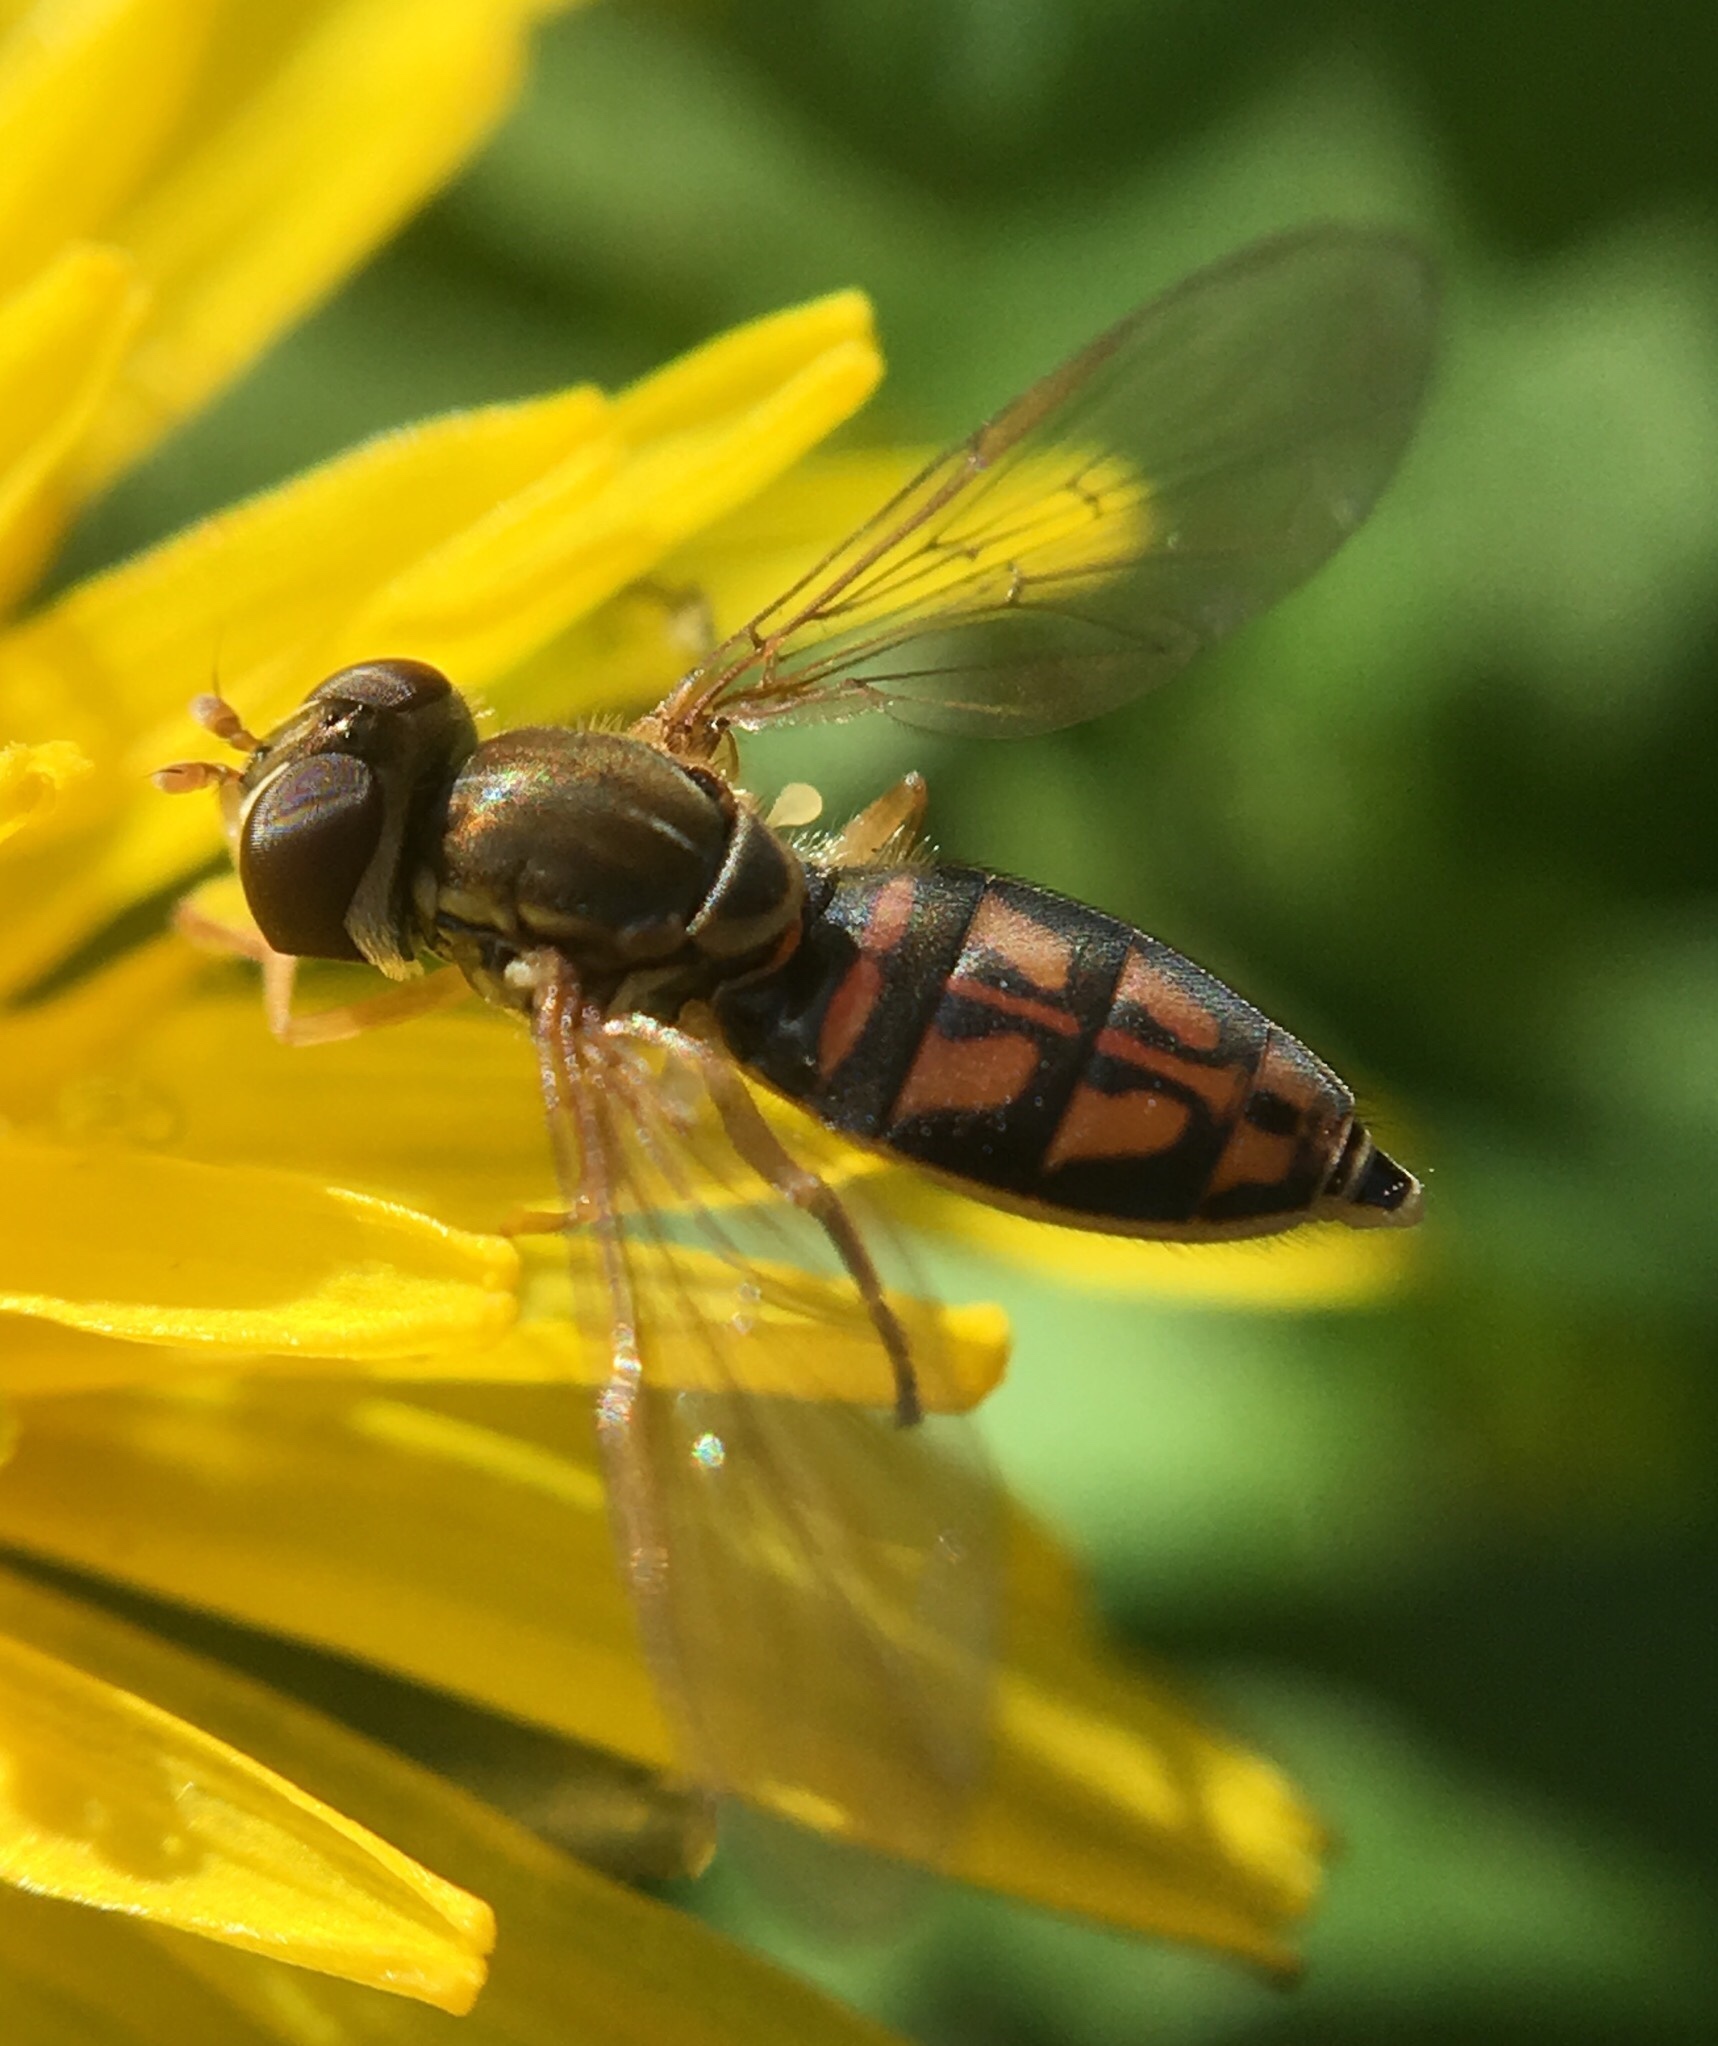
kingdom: Animalia
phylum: Arthropoda
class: Insecta
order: Diptera
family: Syrphidae
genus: Toxomerus
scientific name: Toxomerus marginatus
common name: Syrphid fly
